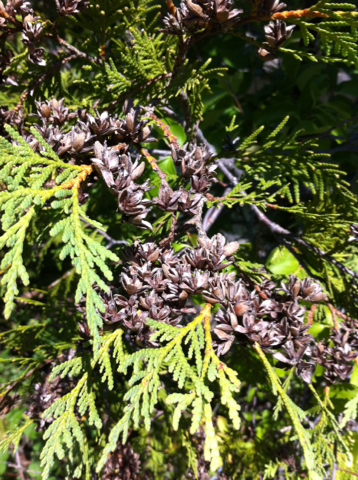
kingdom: Plantae
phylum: Tracheophyta
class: Pinopsida
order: Pinales
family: Cupressaceae
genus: Thuja
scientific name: Thuja occidentalis
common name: Northern white-cedar
